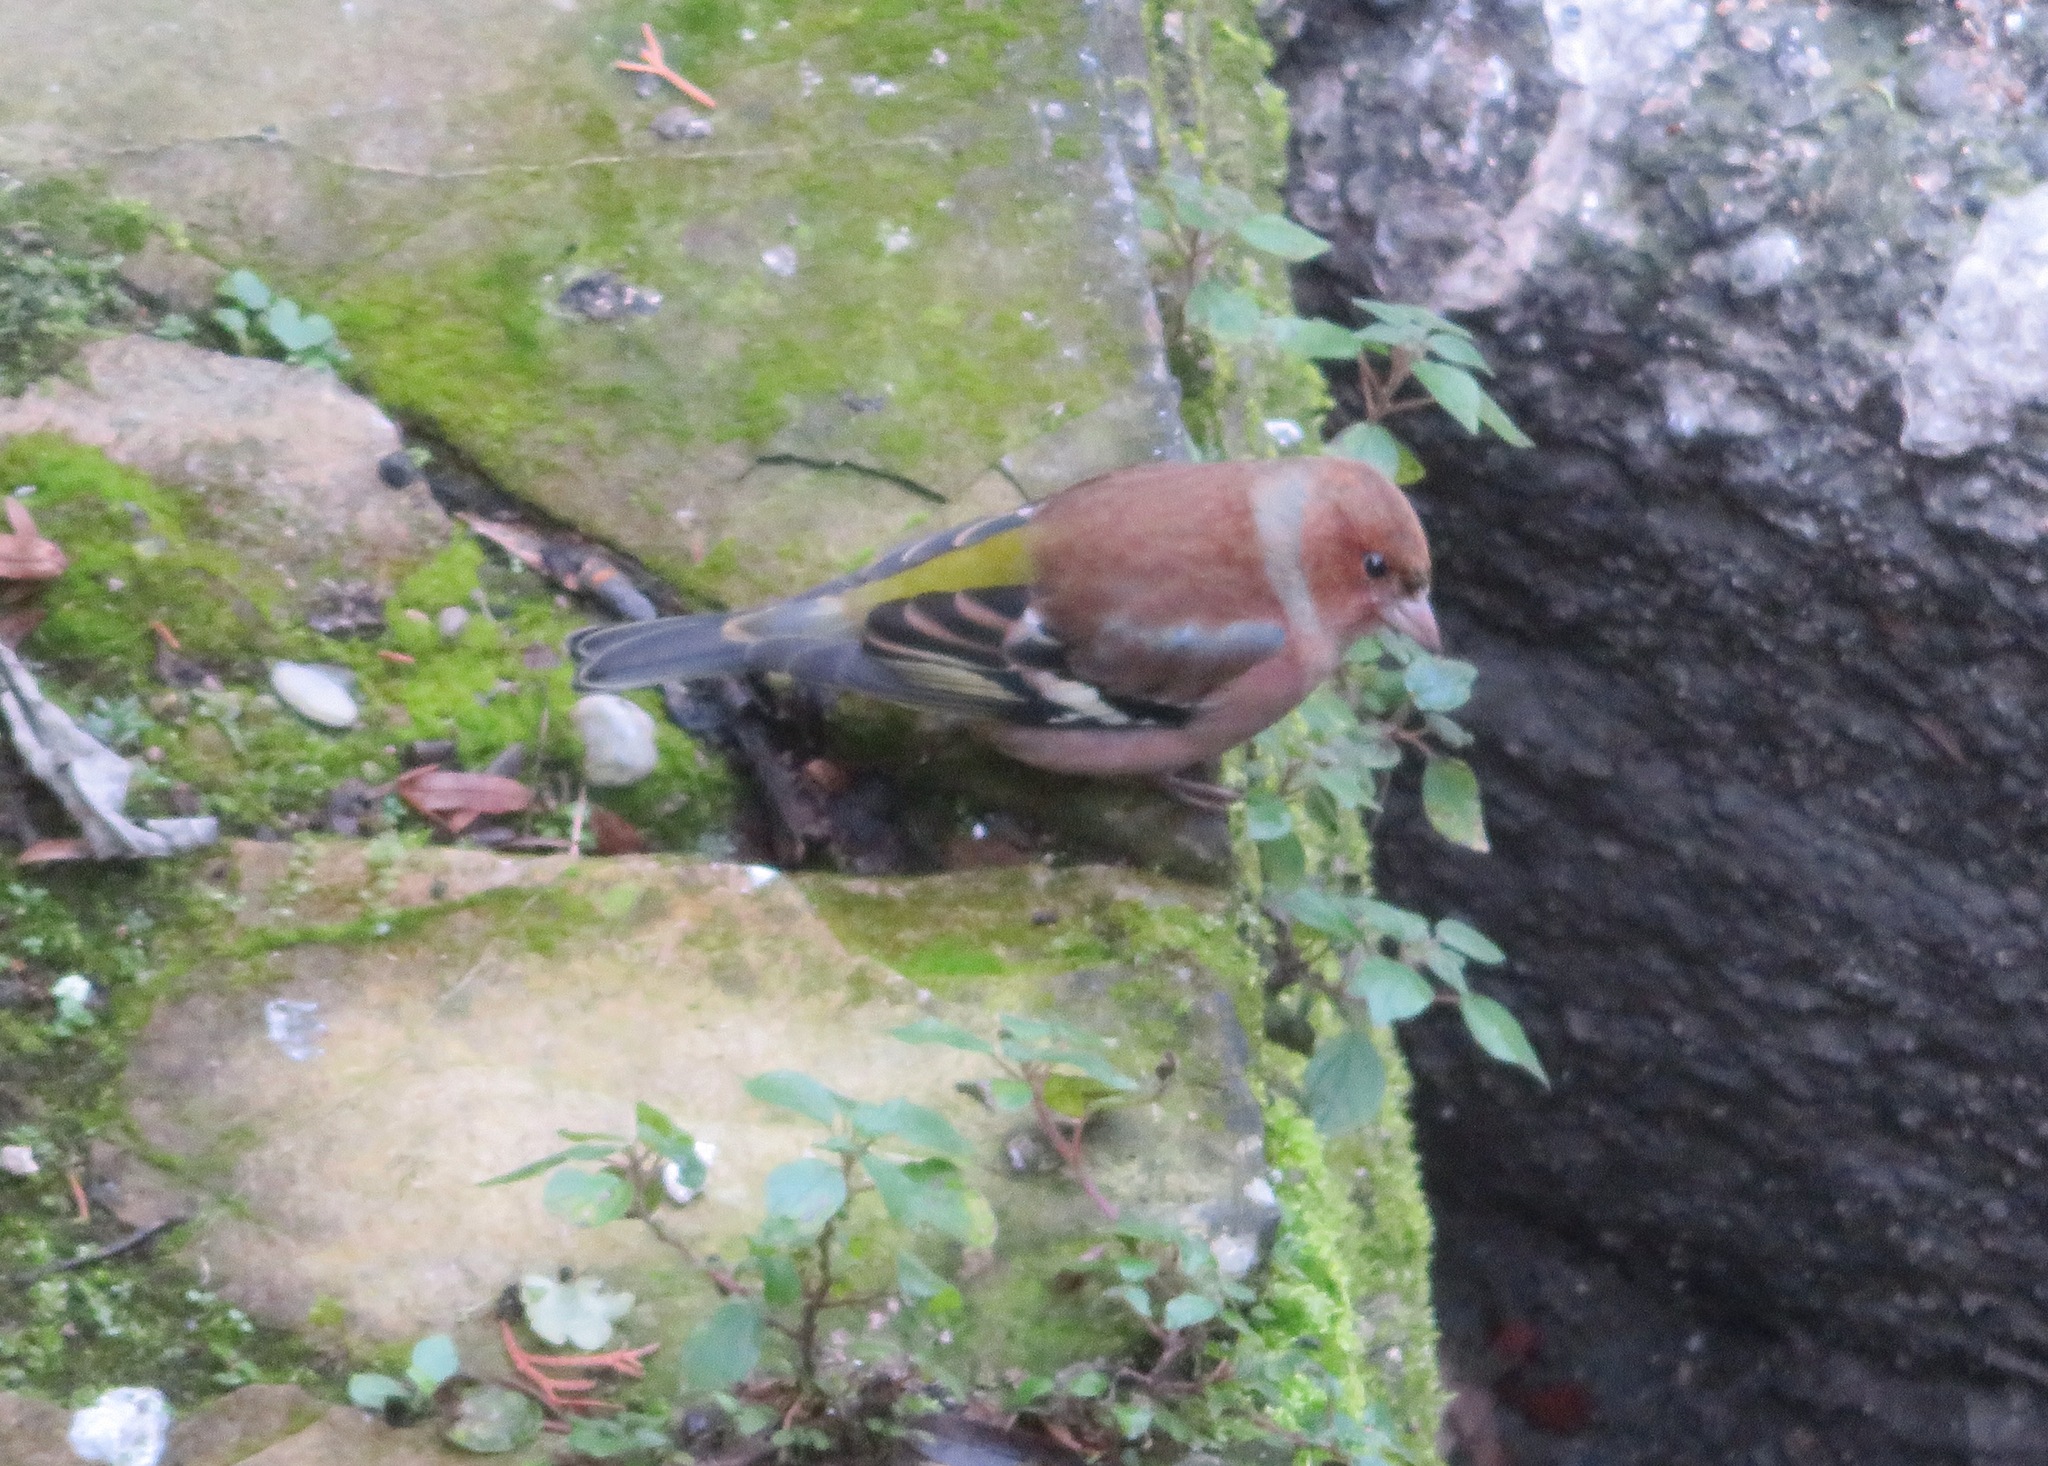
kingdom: Animalia
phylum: Chordata
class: Aves
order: Passeriformes
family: Fringillidae
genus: Fringilla
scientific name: Fringilla coelebs
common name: Common chaffinch
